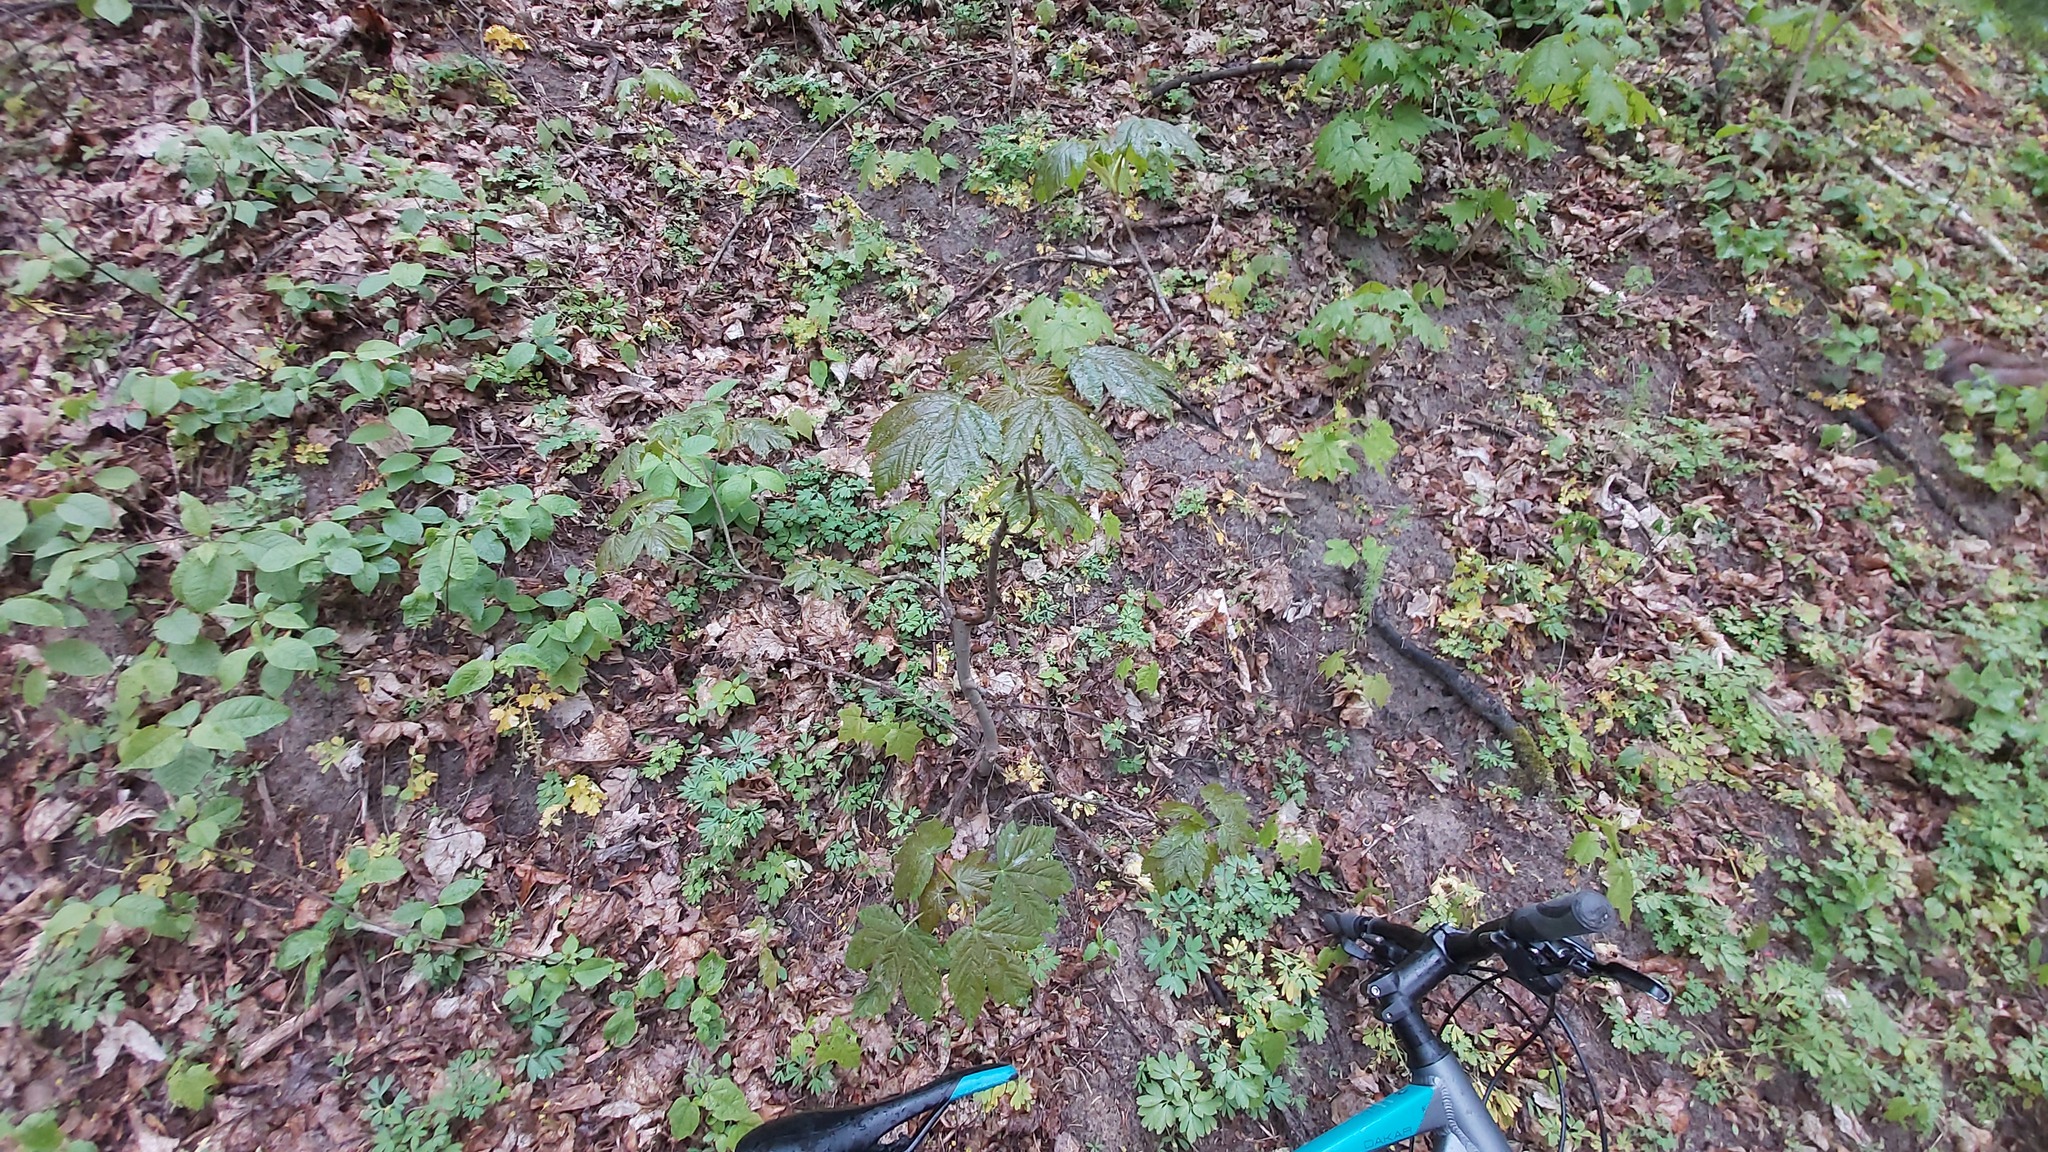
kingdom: Plantae
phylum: Tracheophyta
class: Magnoliopsida
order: Sapindales
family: Sapindaceae
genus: Acer
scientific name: Acer pseudoplatanus
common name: Sycamore
